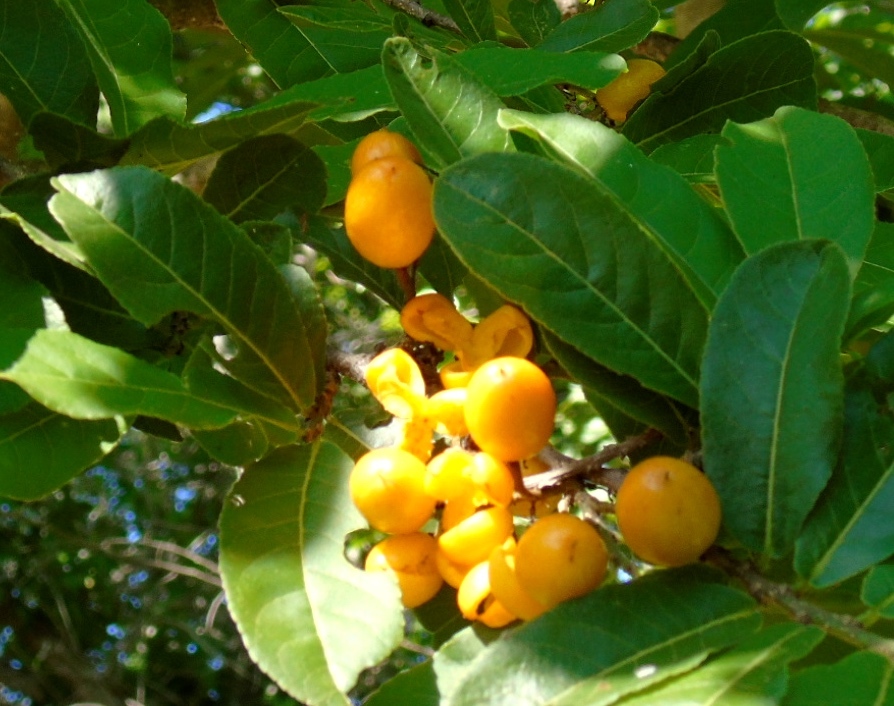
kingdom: Plantae
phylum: Tracheophyta
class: Magnoliopsida
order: Malpighiales
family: Salicaceae
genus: Casearia
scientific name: Casearia corymbosa
